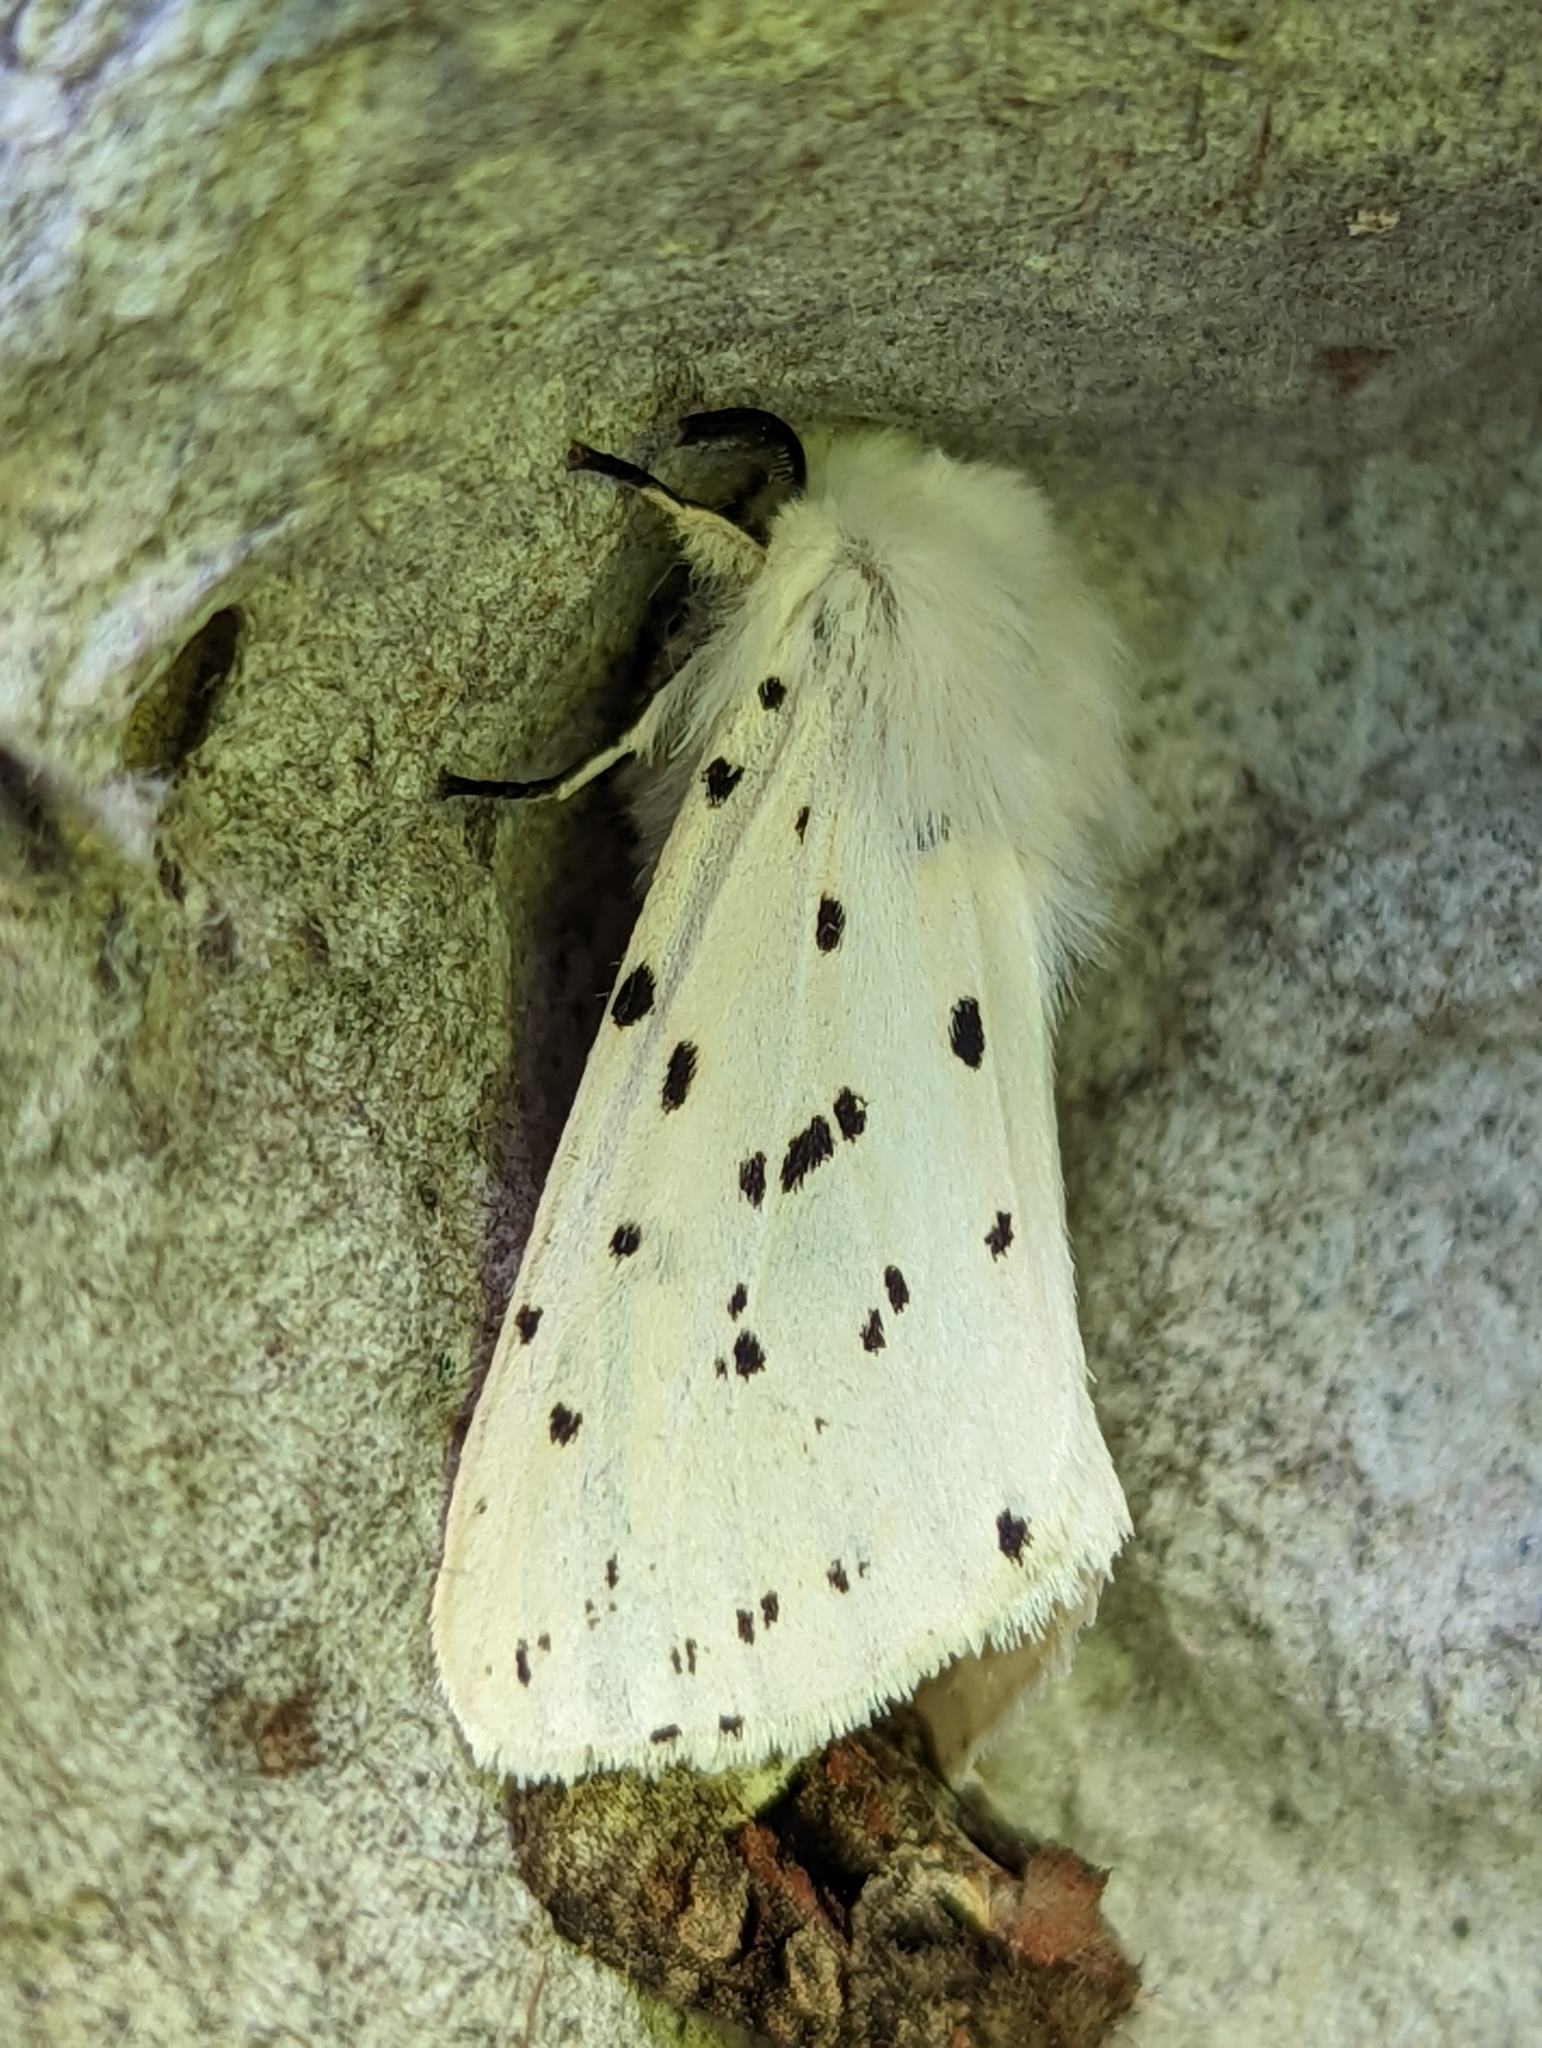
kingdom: Animalia
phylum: Arthropoda
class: Insecta
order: Lepidoptera
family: Erebidae
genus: Spilosoma
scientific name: Spilosoma lubricipeda
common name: White ermine
